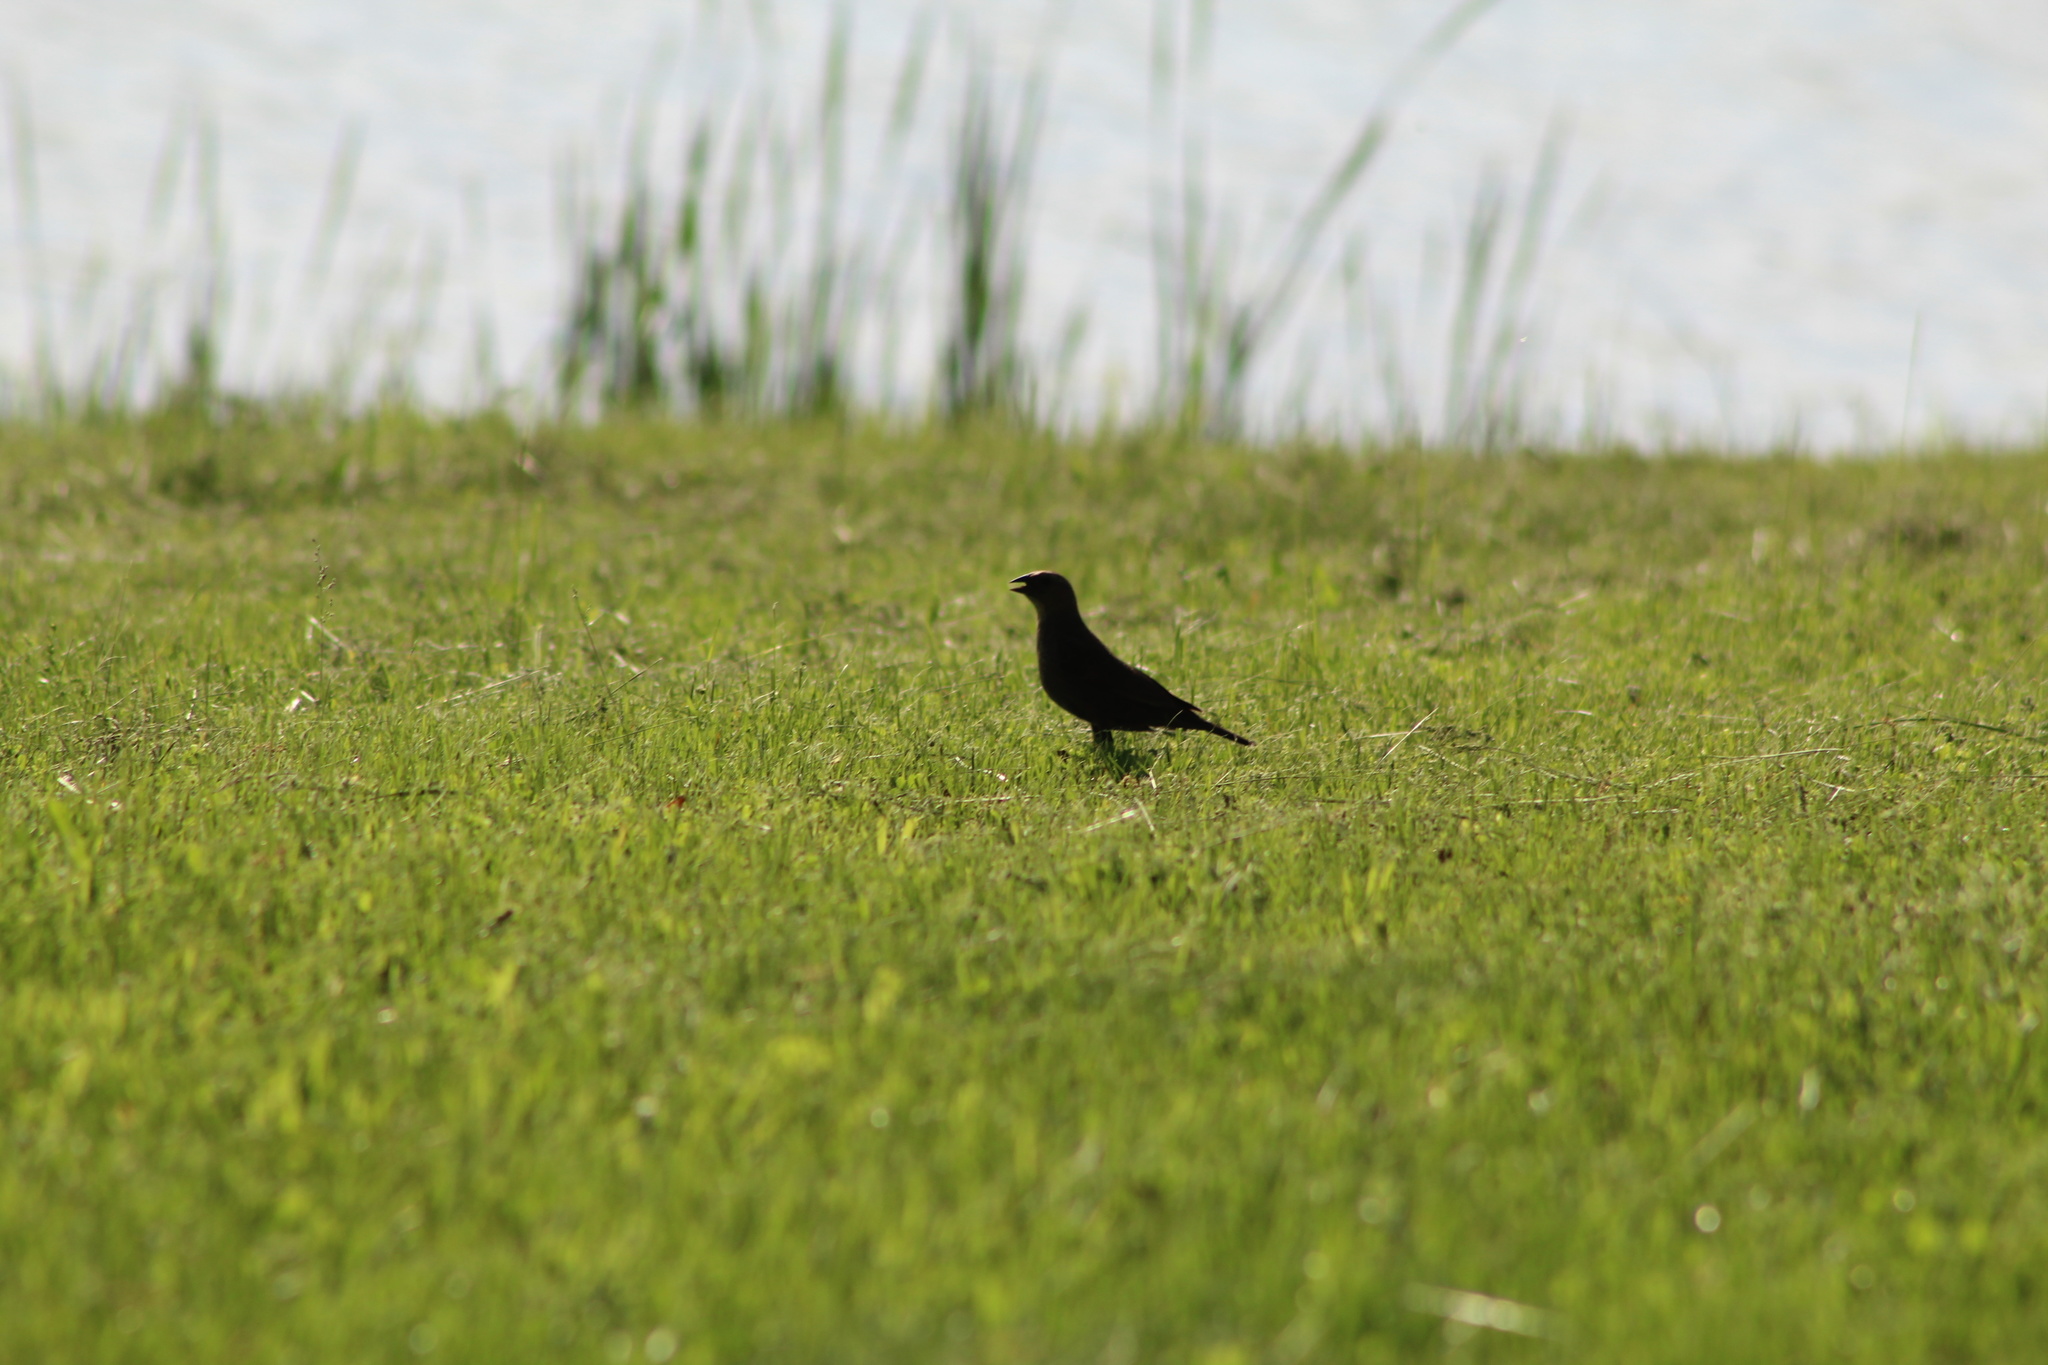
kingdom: Animalia
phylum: Chordata
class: Aves
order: Passeriformes
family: Icteridae
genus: Molothrus
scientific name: Molothrus ater
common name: Brown-headed cowbird
